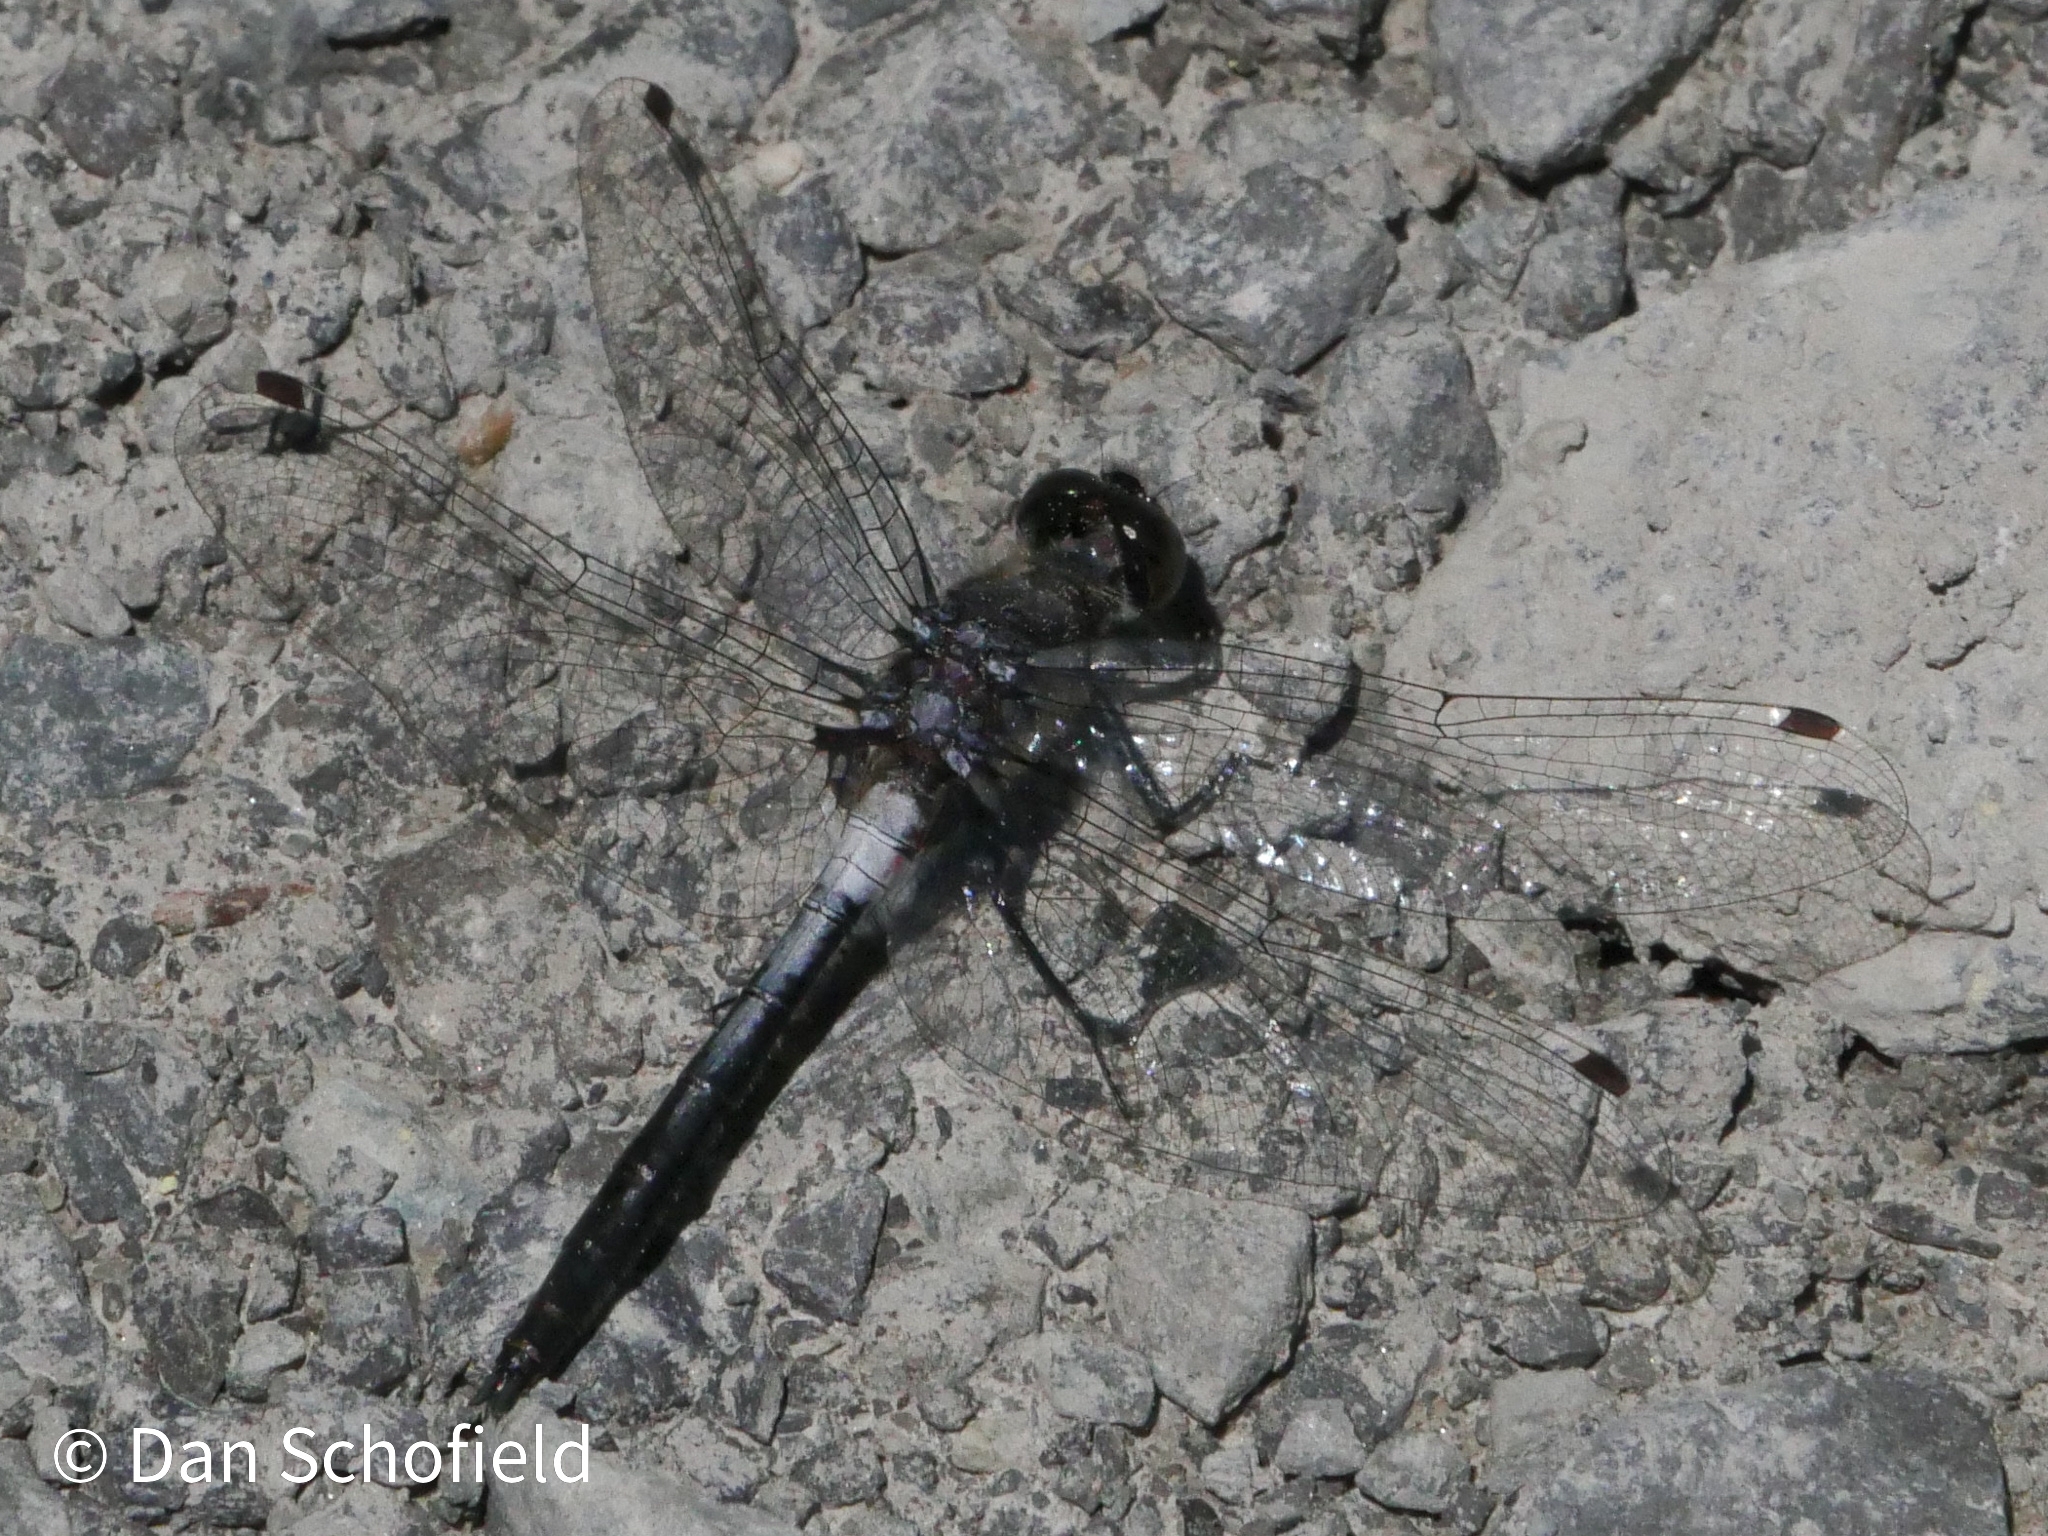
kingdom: Animalia
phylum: Arthropoda
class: Insecta
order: Odonata
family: Libellulidae
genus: Ladona
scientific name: Ladona julia
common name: Chalk-fronted corporal
